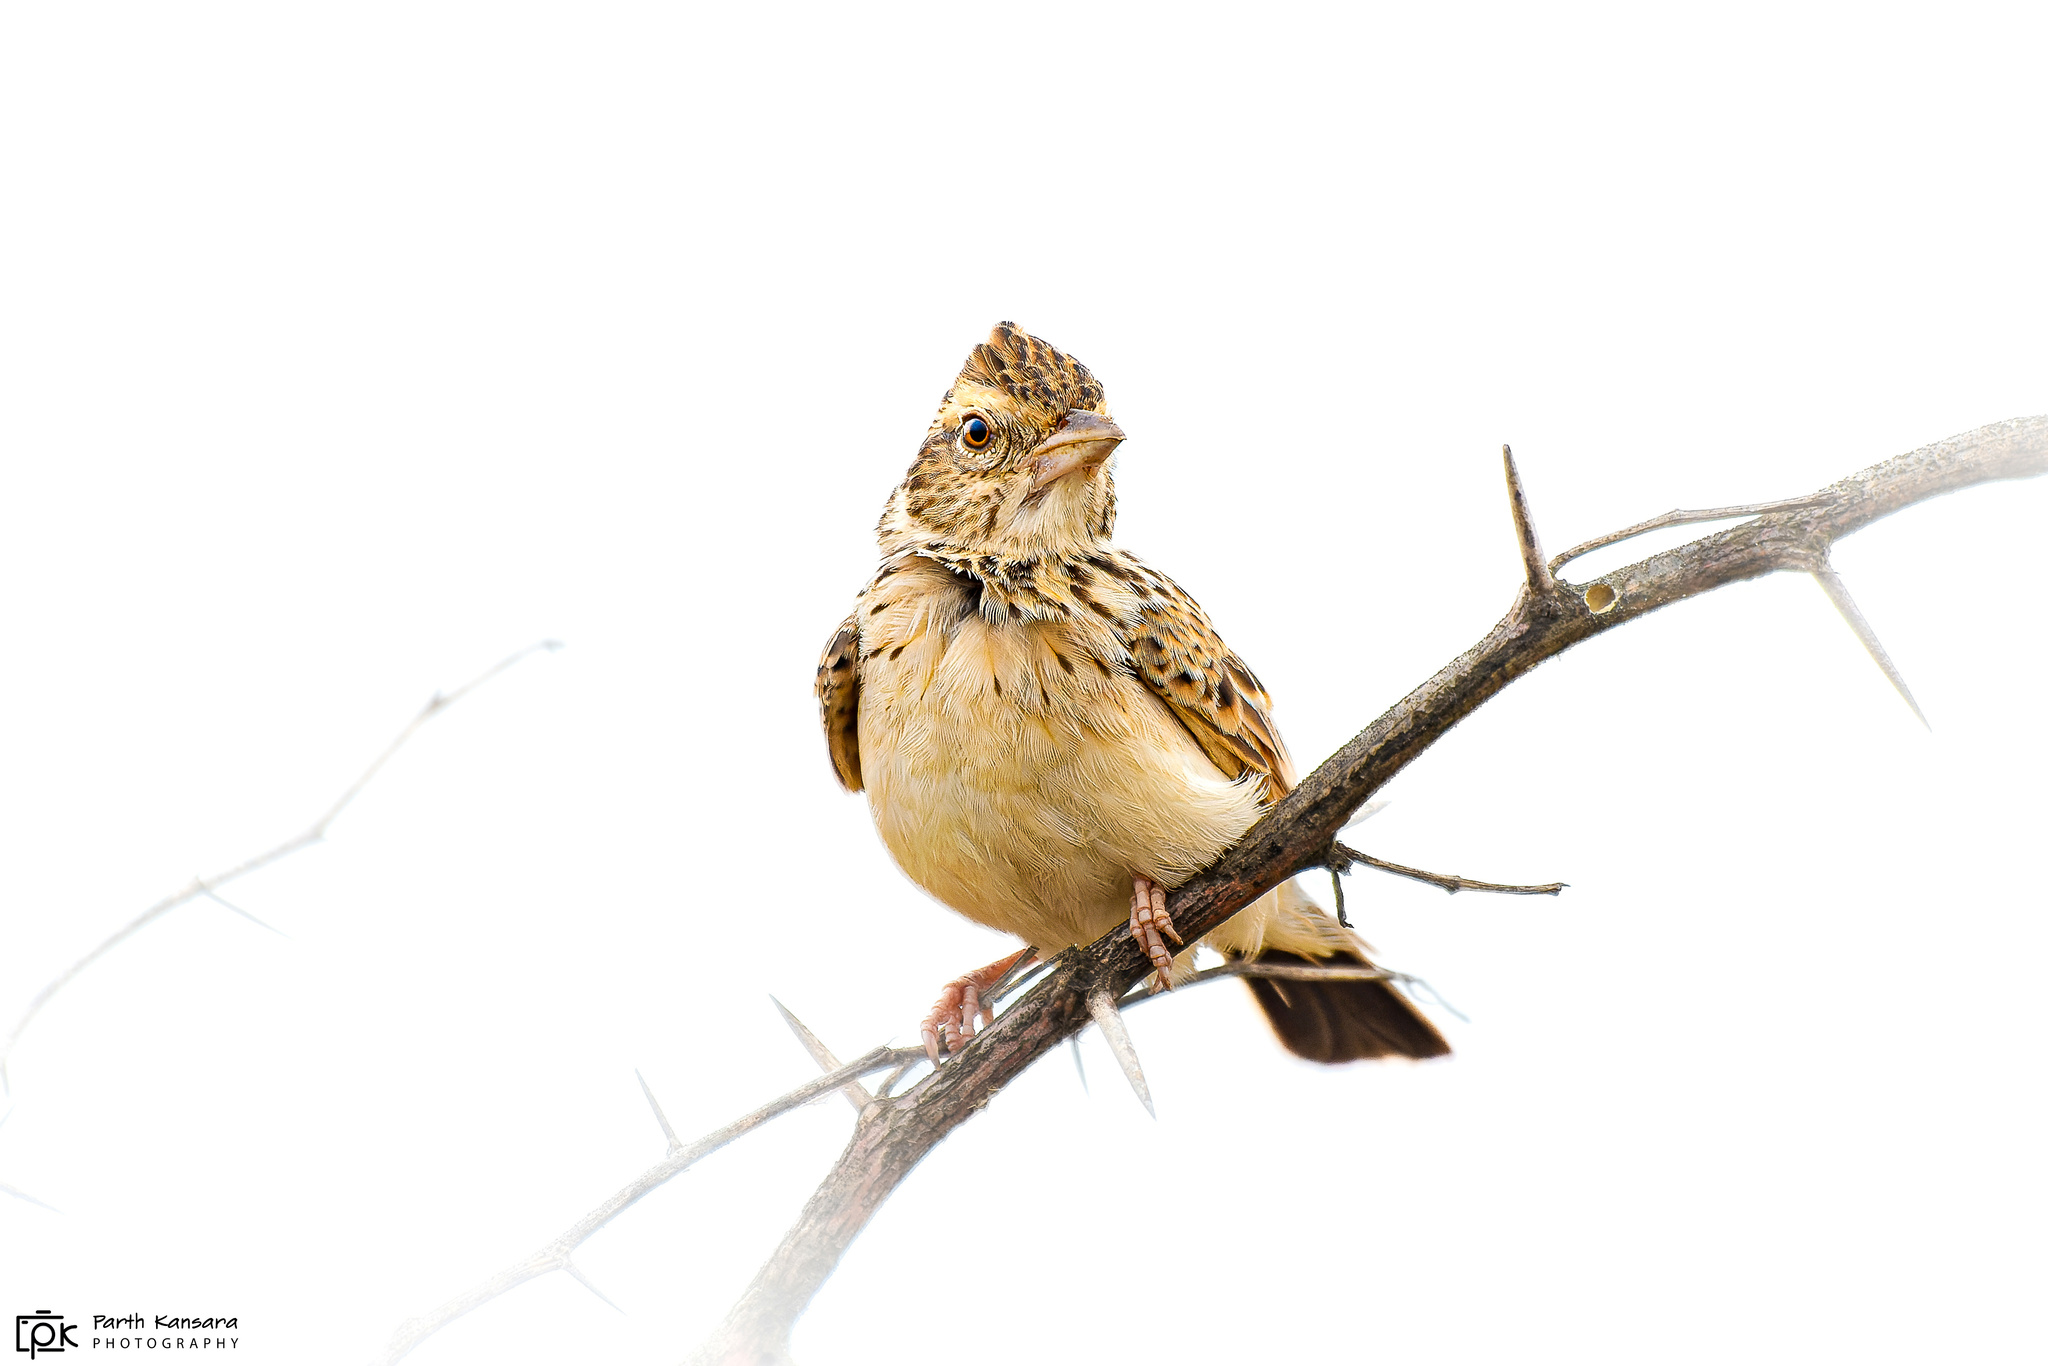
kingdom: Animalia
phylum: Chordata
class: Aves
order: Passeriformes
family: Alaudidae
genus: Mirafra
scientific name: Mirafra erythroptera
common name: Indian bush lark
